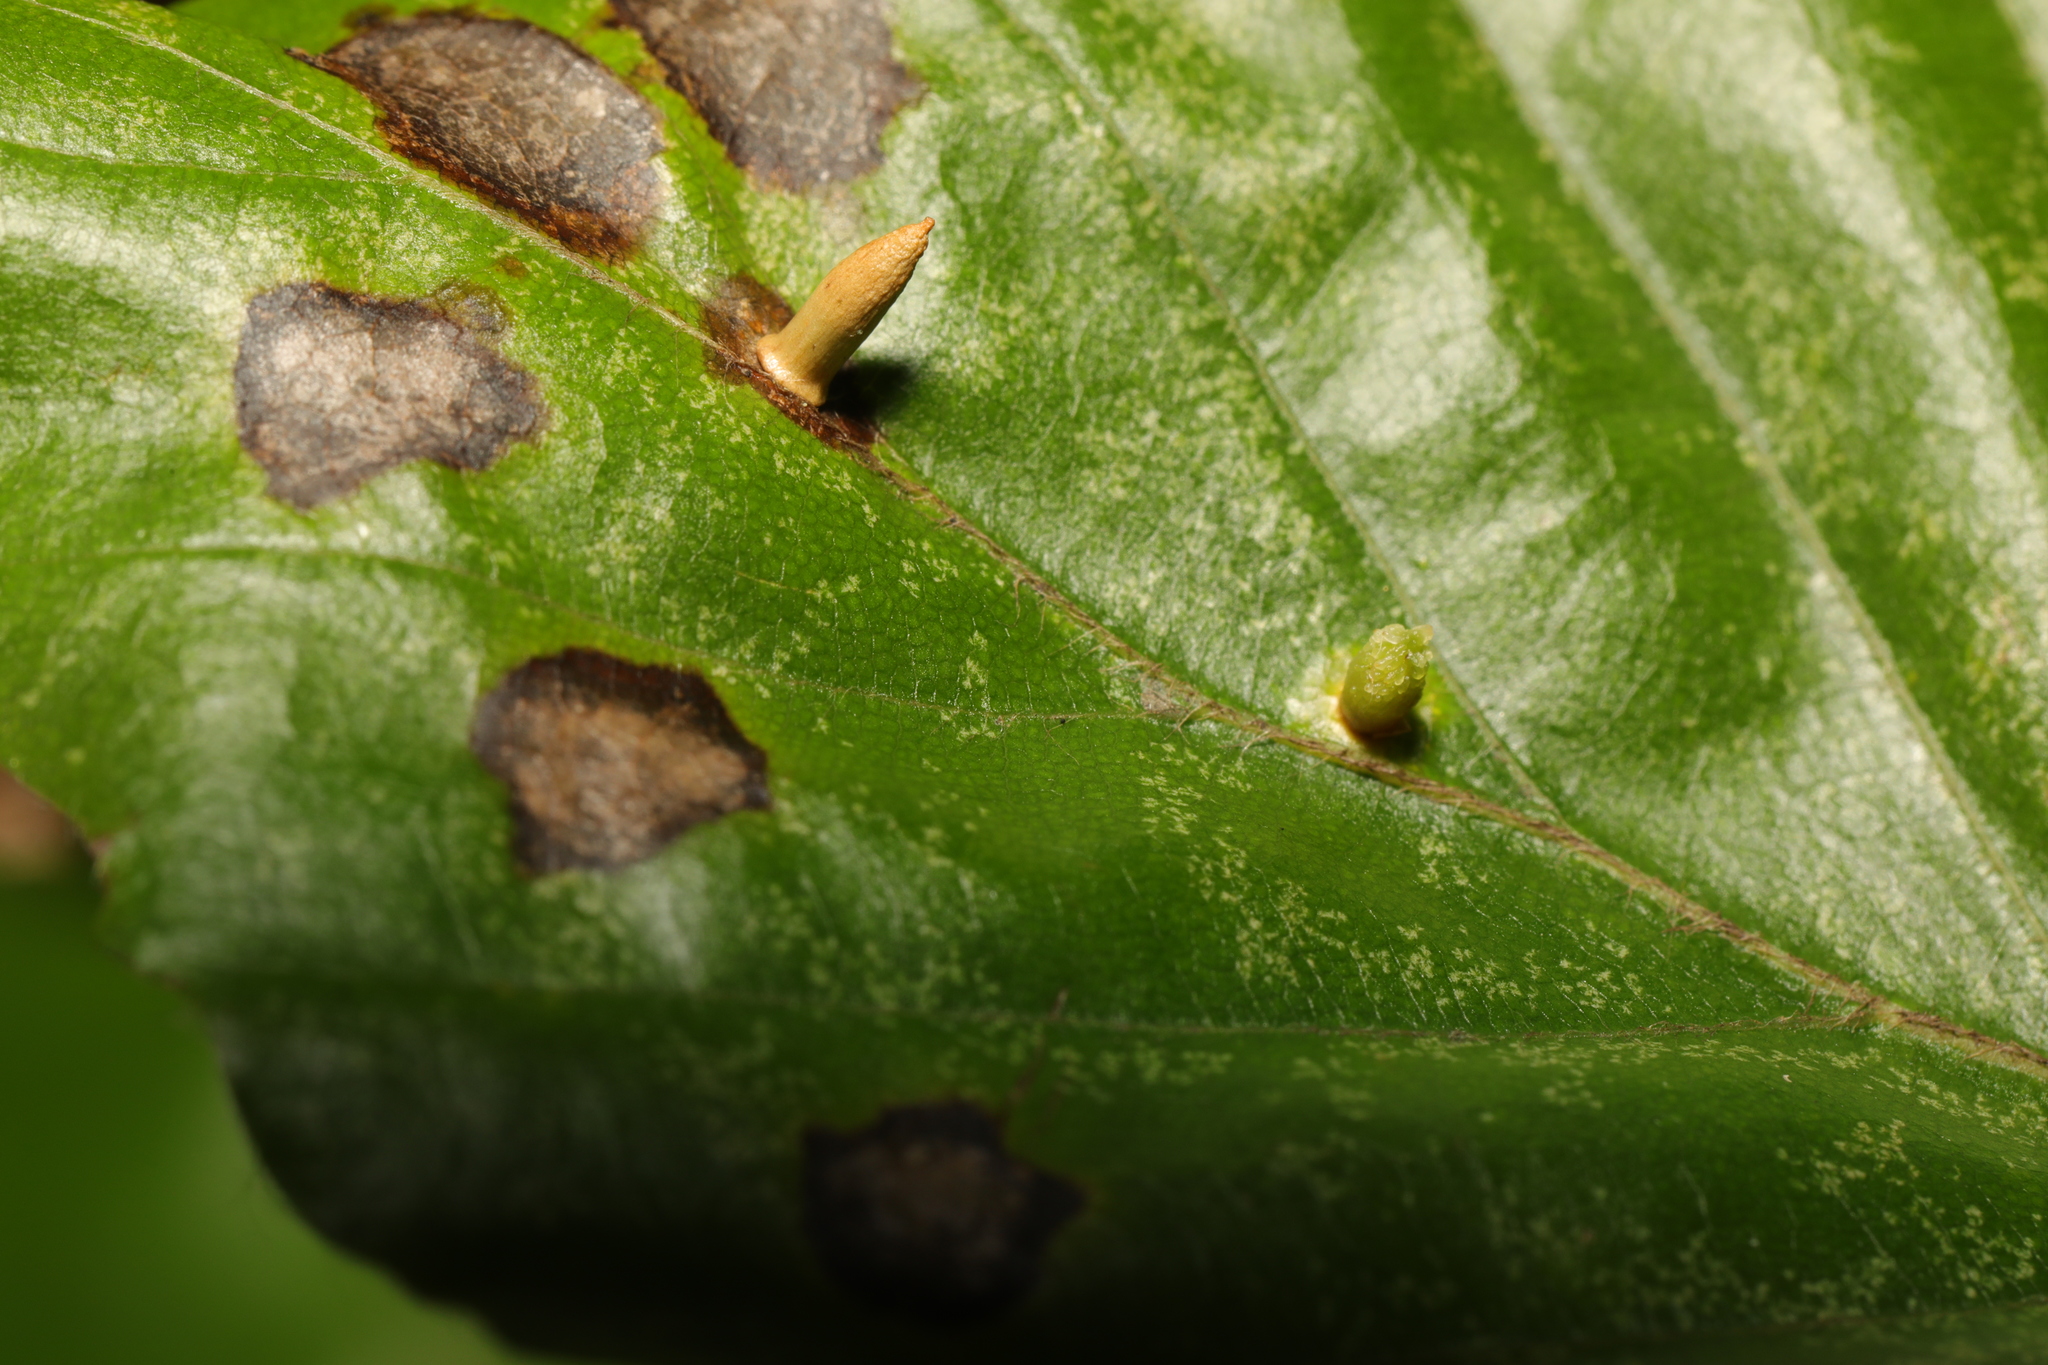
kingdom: Animalia
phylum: Arthropoda
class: Insecta
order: Diptera
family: Cecidomyiidae
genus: Hartigiola
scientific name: Hartigiola annulipes
